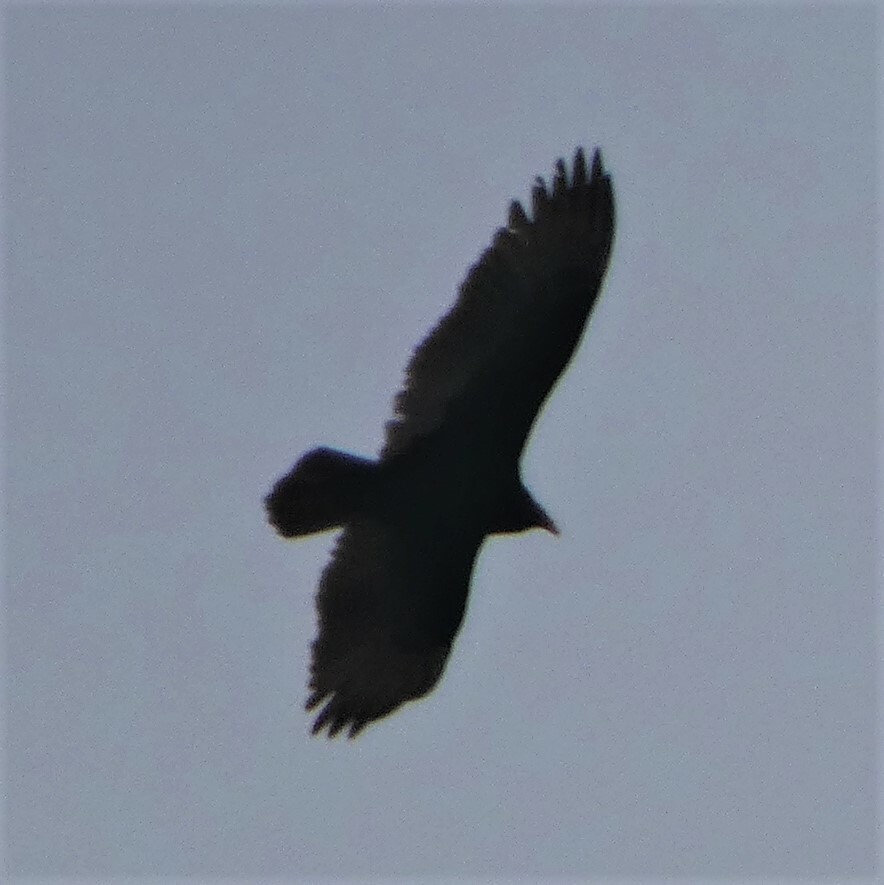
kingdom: Animalia
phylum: Chordata
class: Aves
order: Accipitriformes
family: Cathartidae
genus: Cathartes
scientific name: Cathartes aura
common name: Turkey vulture
